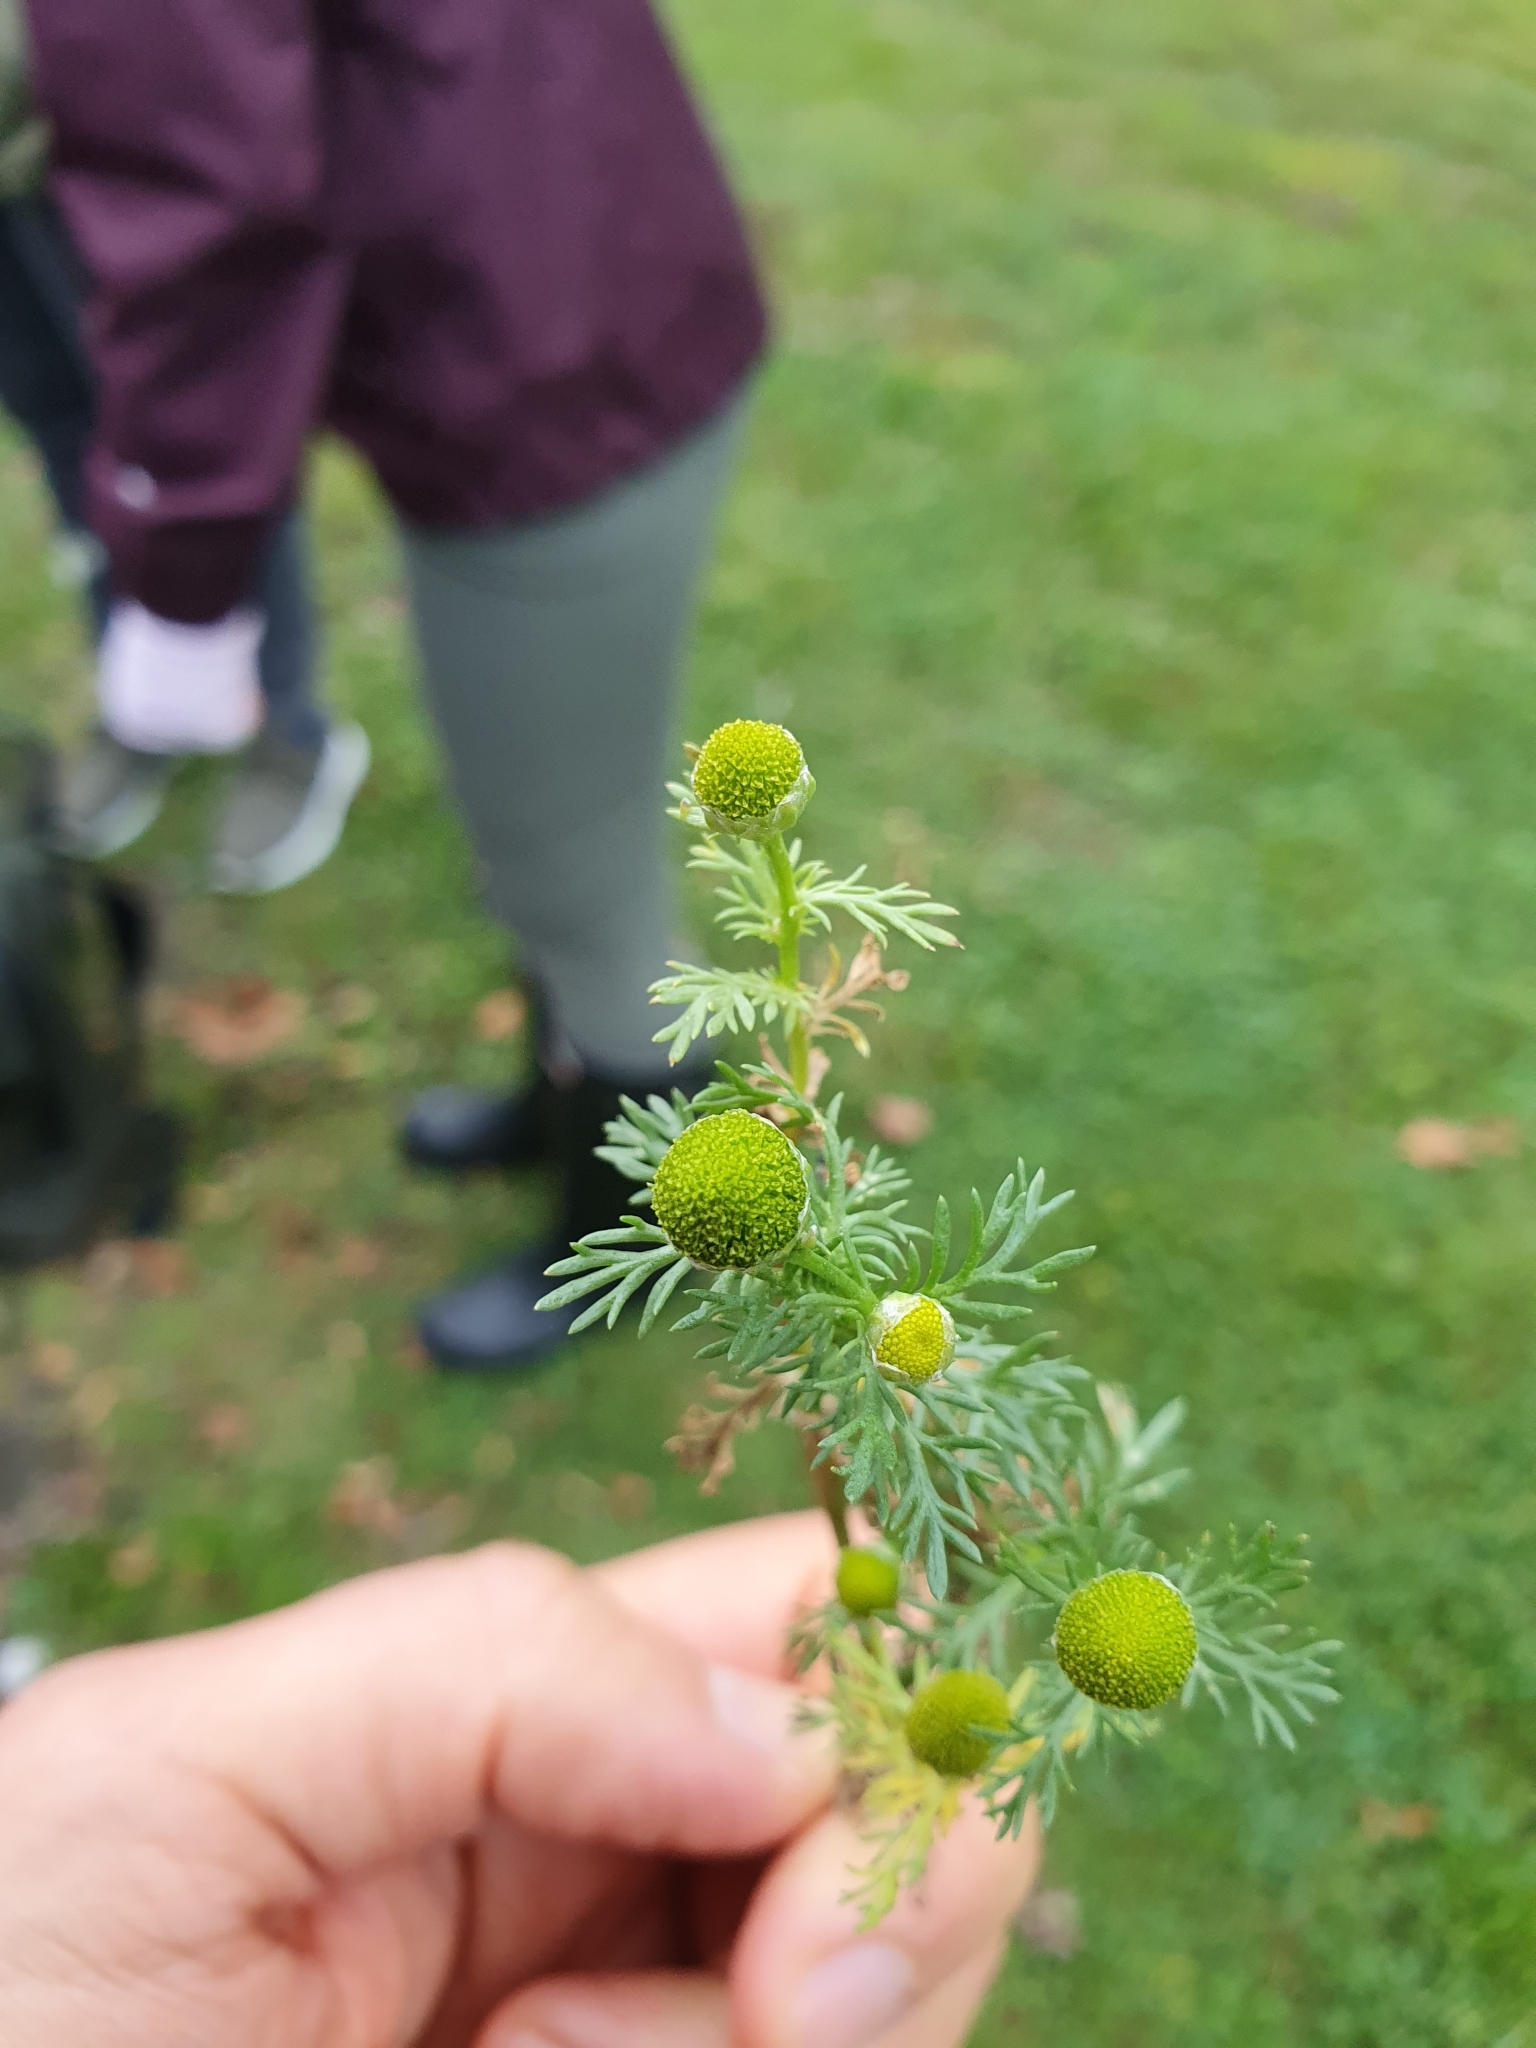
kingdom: Plantae
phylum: Tracheophyta
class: Magnoliopsida
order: Asterales
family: Asteraceae
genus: Matricaria
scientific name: Matricaria discoidea
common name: Disc mayweed
